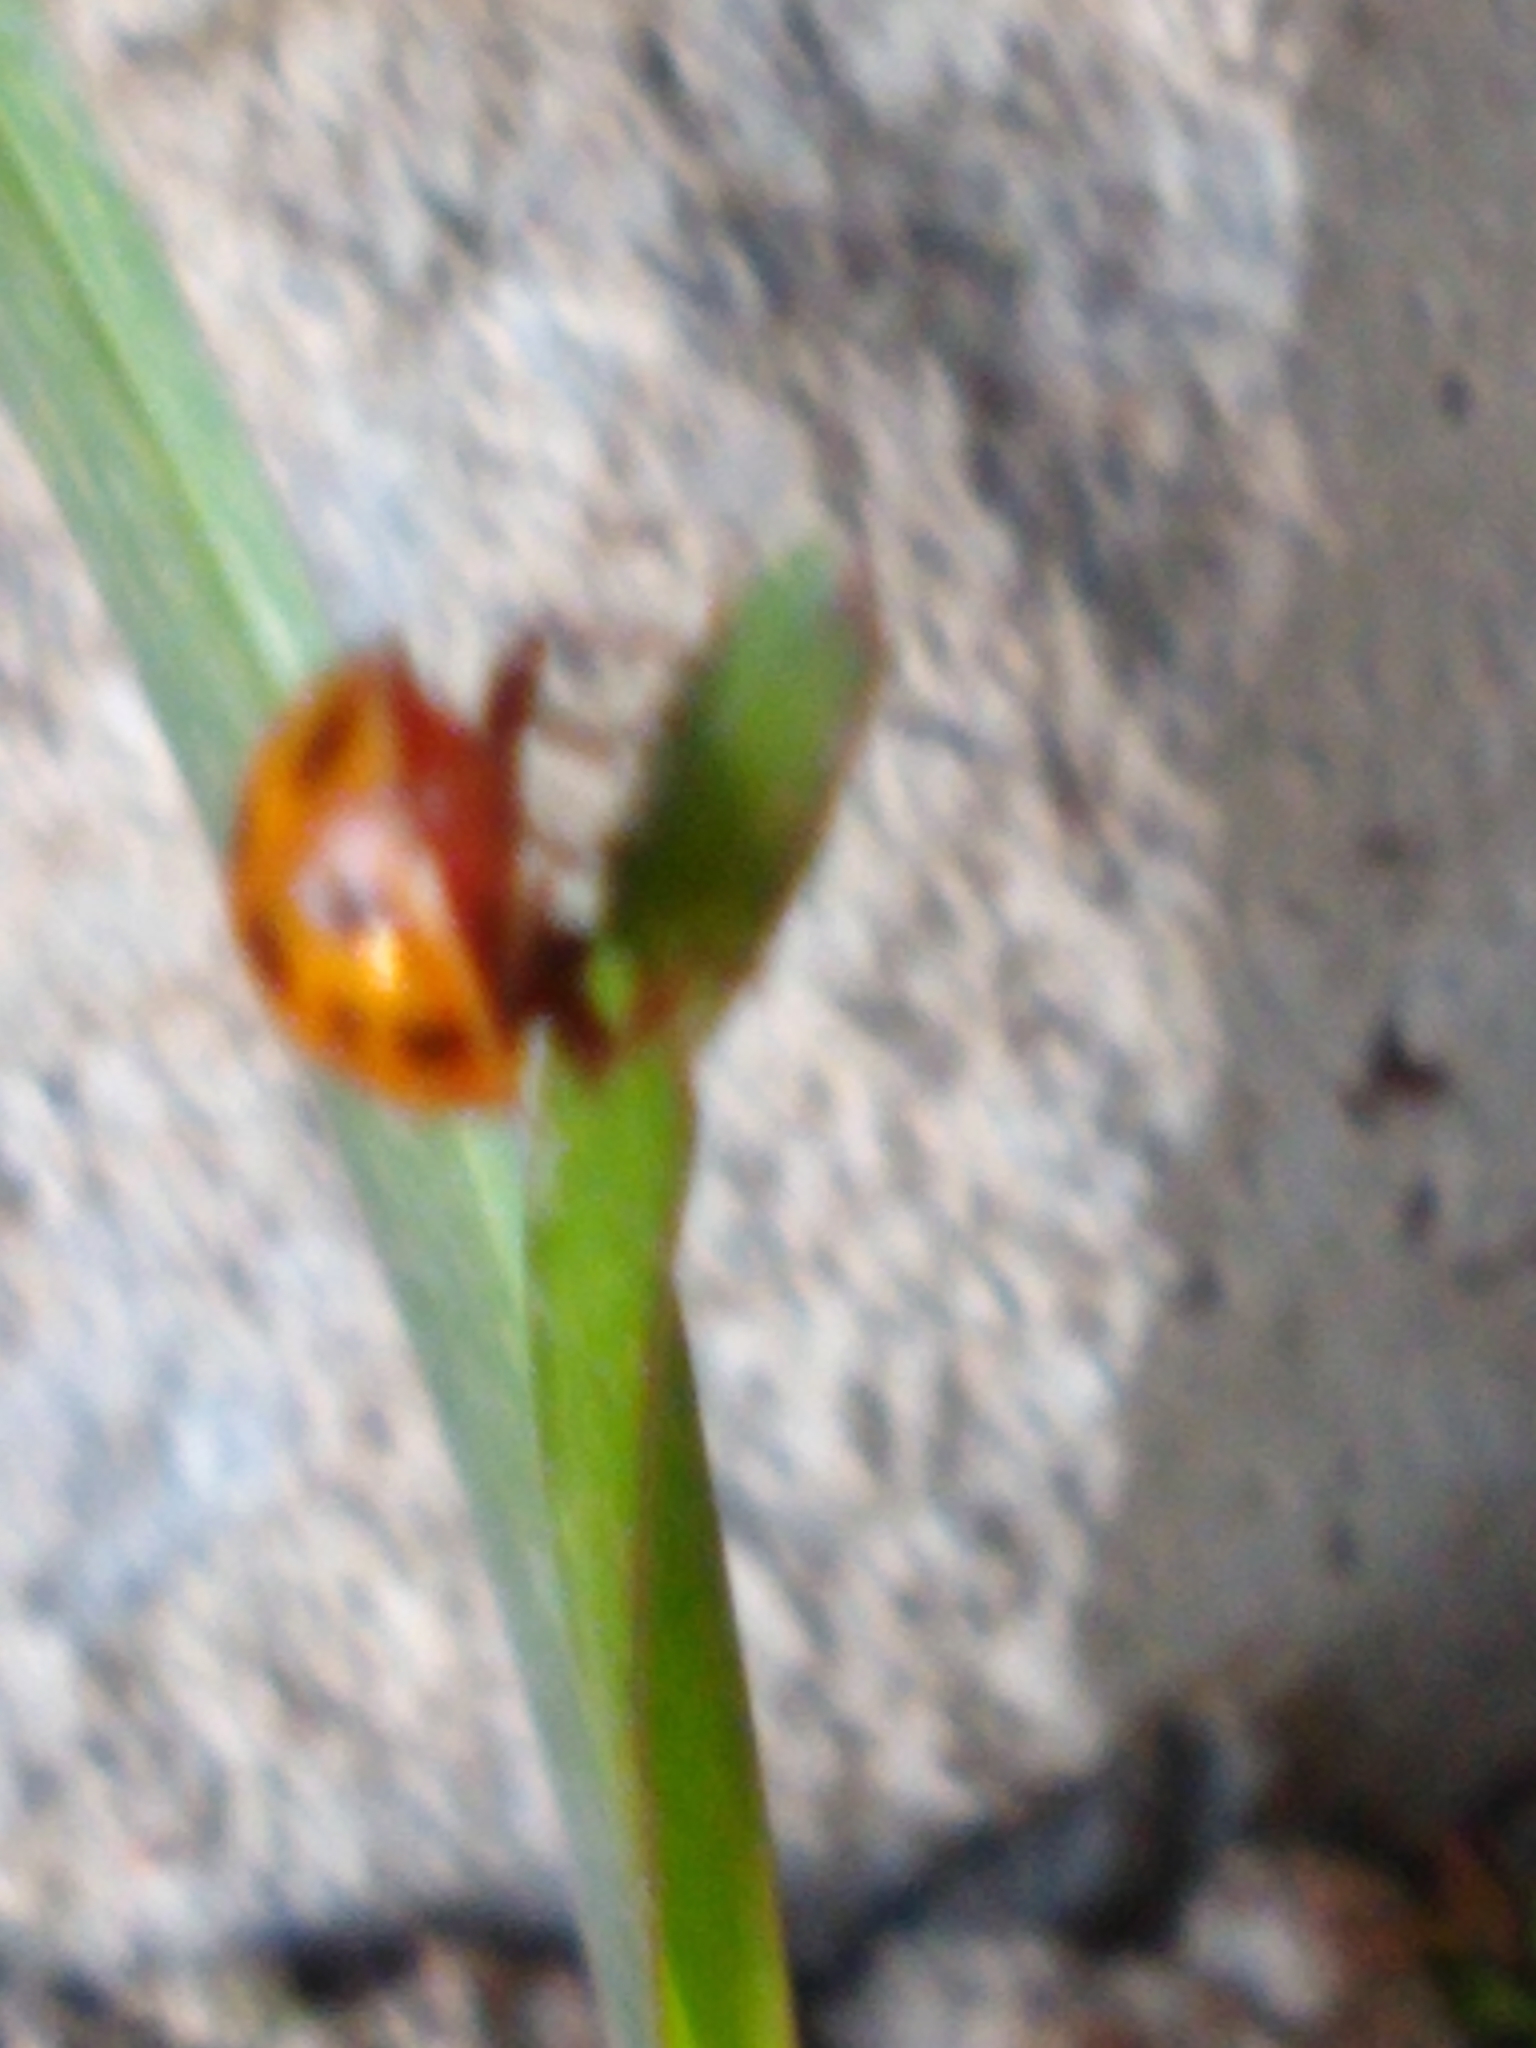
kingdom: Animalia
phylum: Arthropoda
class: Insecta
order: Coleoptera
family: Coccinellidae
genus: Harmonia
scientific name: Harmonia axyridis
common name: Harlequin ladybird
